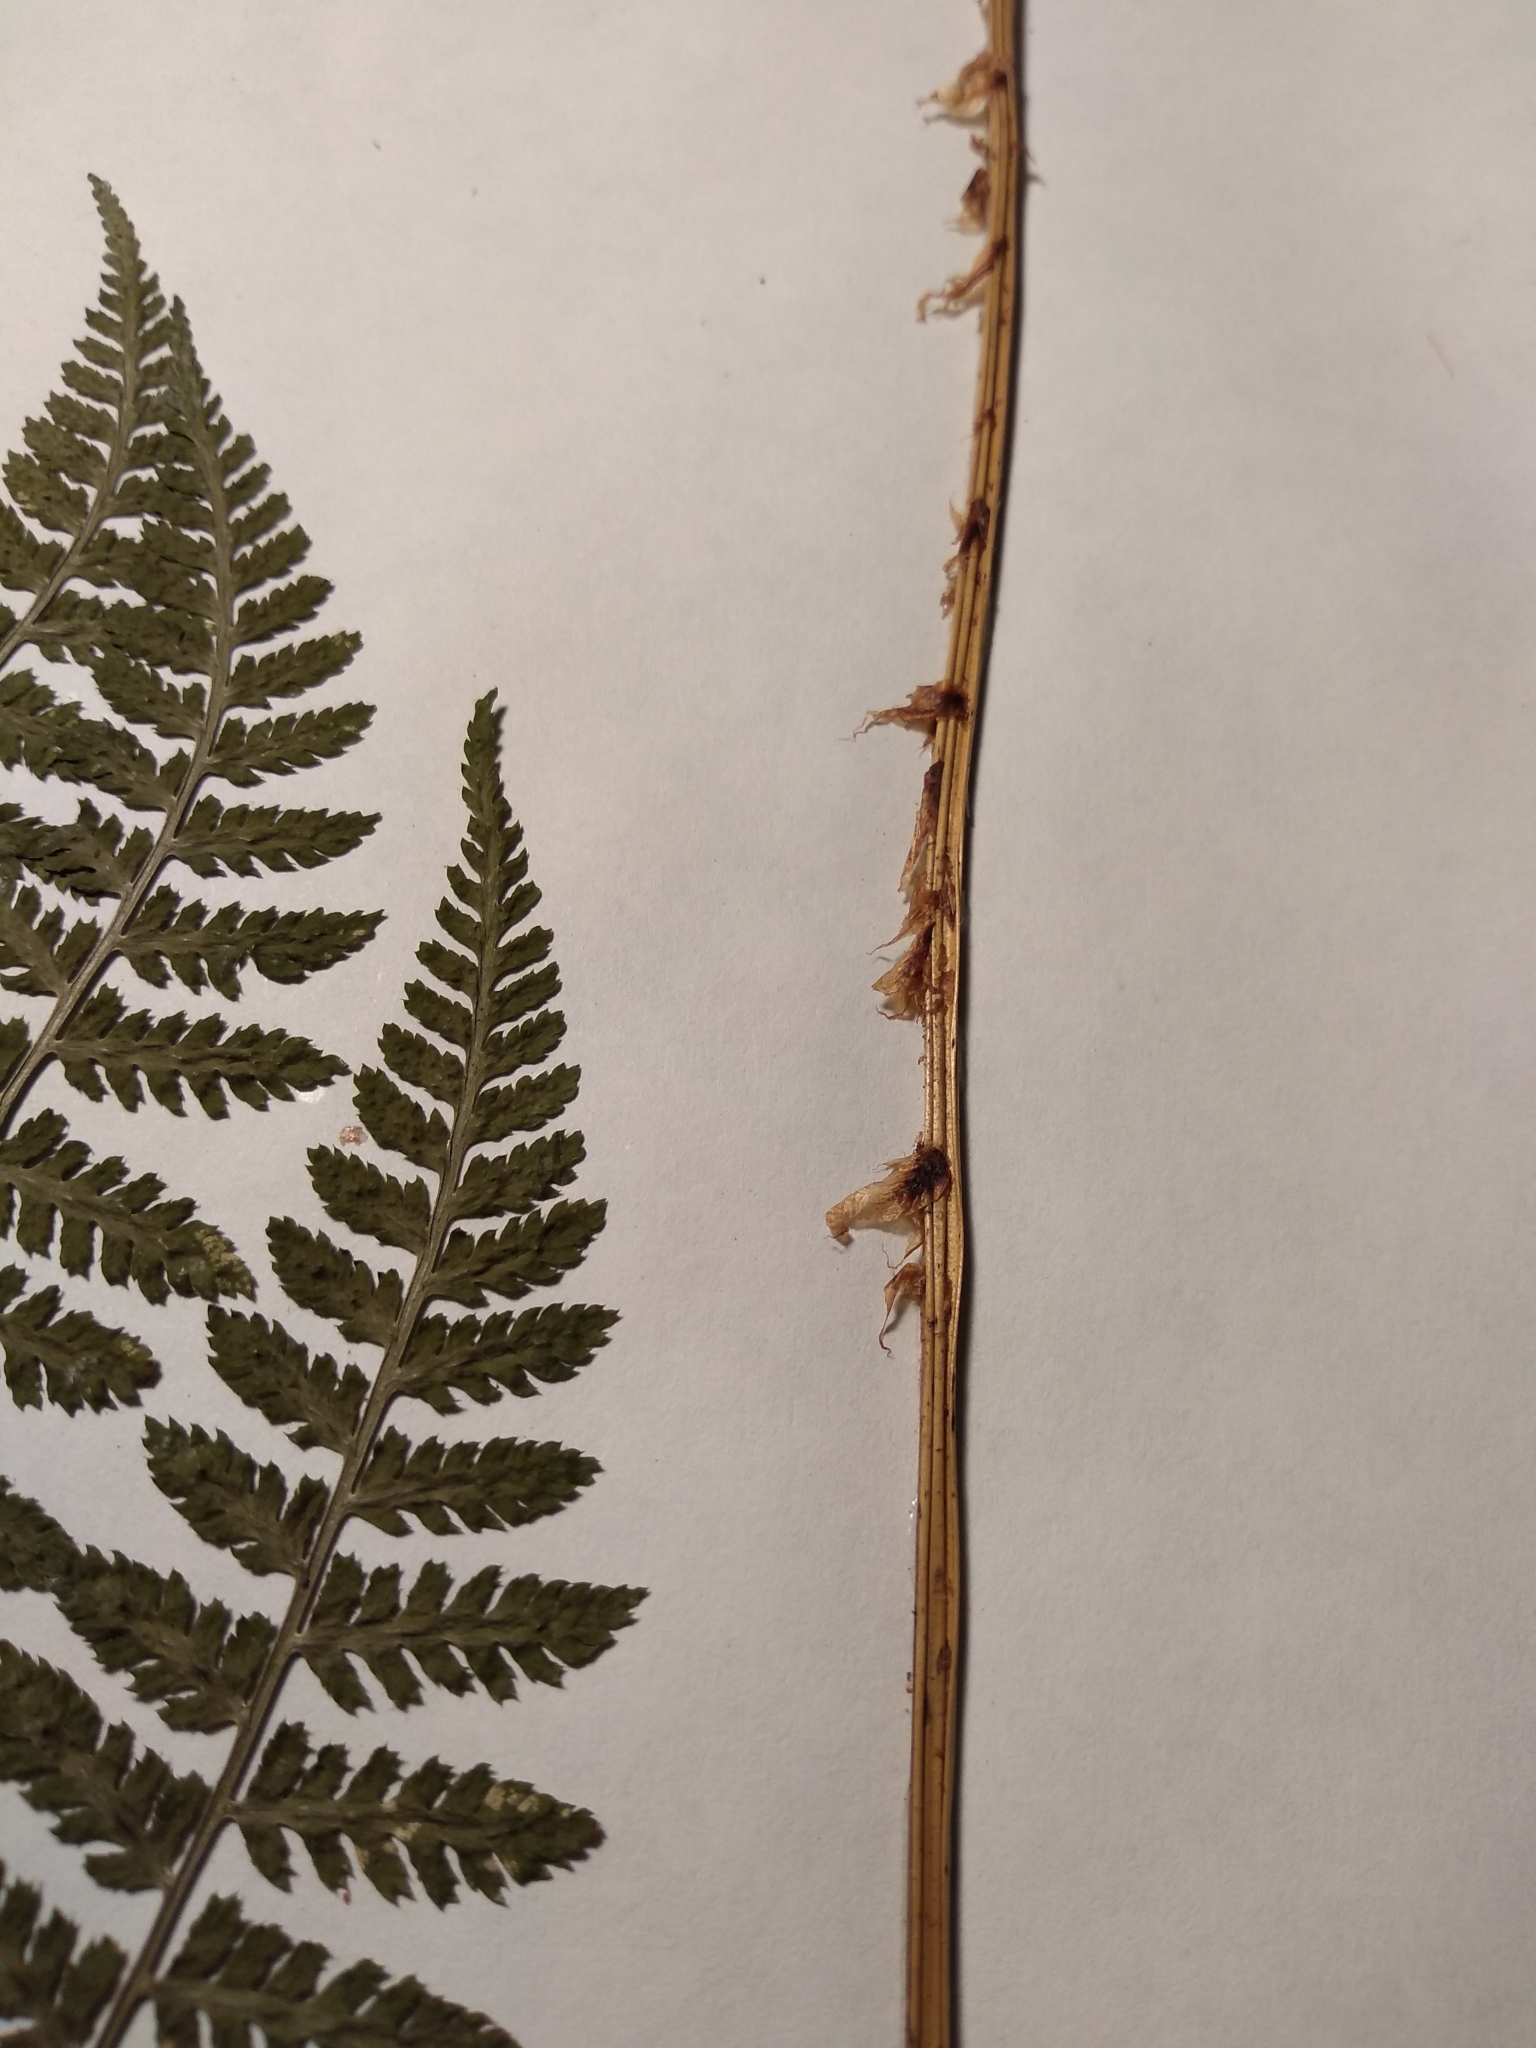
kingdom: Plantae
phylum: Tracheophyta
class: Polypodiopsida
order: Polypodiales
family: Dryopteridaceae
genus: Dryopteris
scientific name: Dryopteris intermedia
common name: Evergreen wood fern
